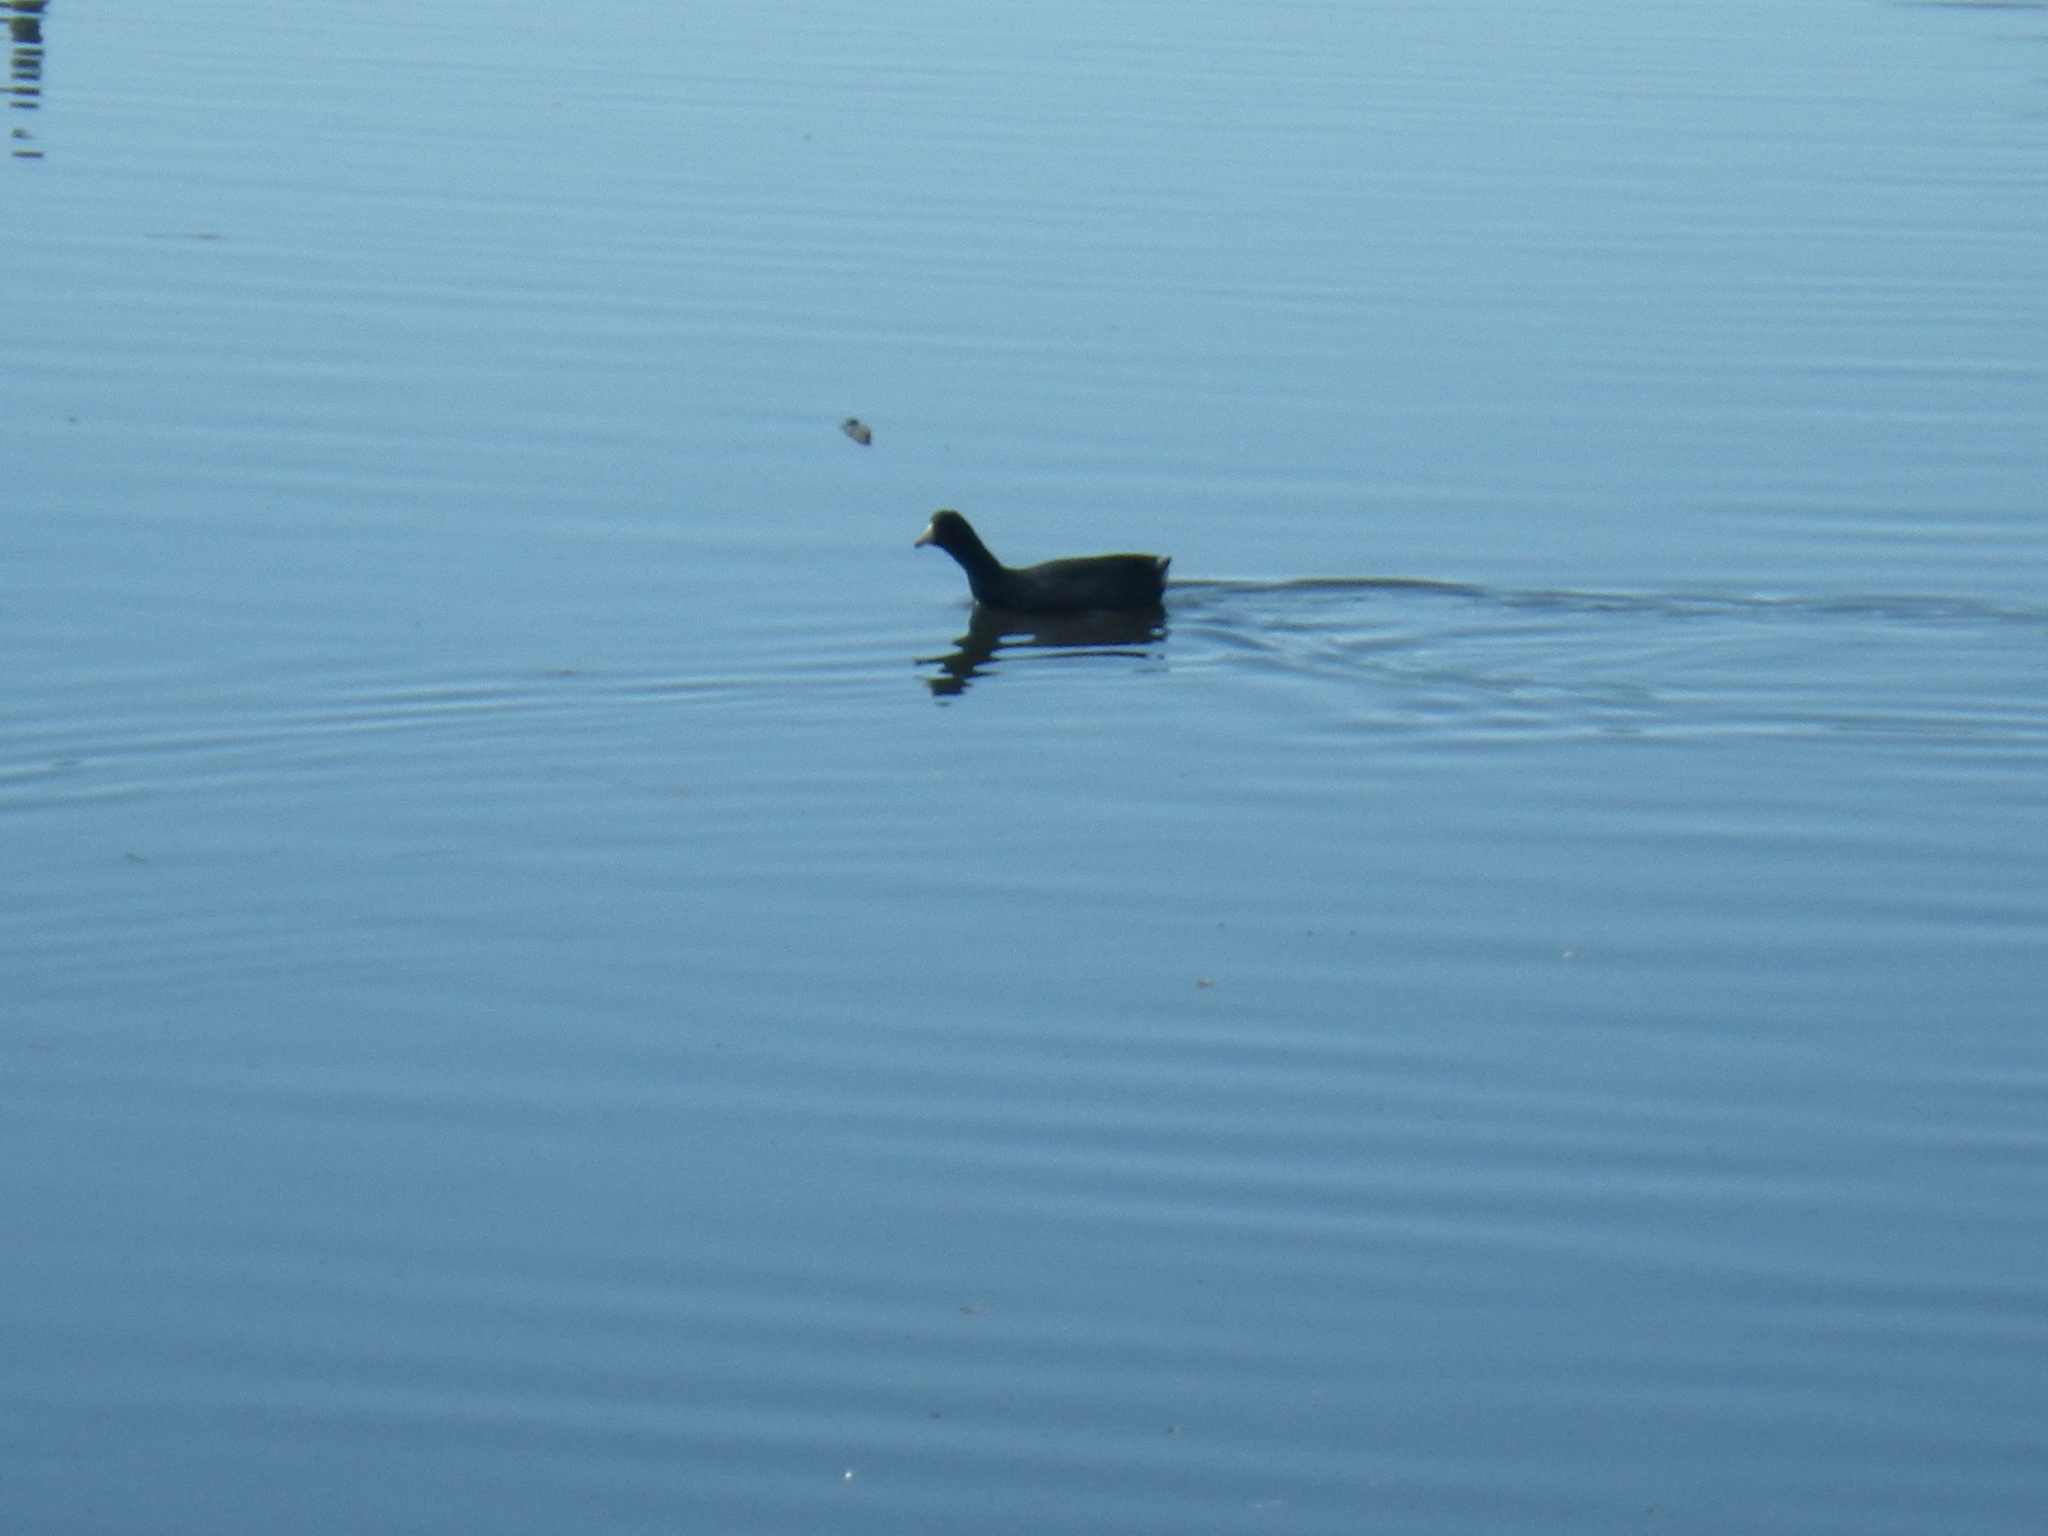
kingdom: Animalia
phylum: Chordata
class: Aves
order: Gruiformes
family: Rallidae
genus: Fulica
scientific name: Fulica americana
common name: American coot
